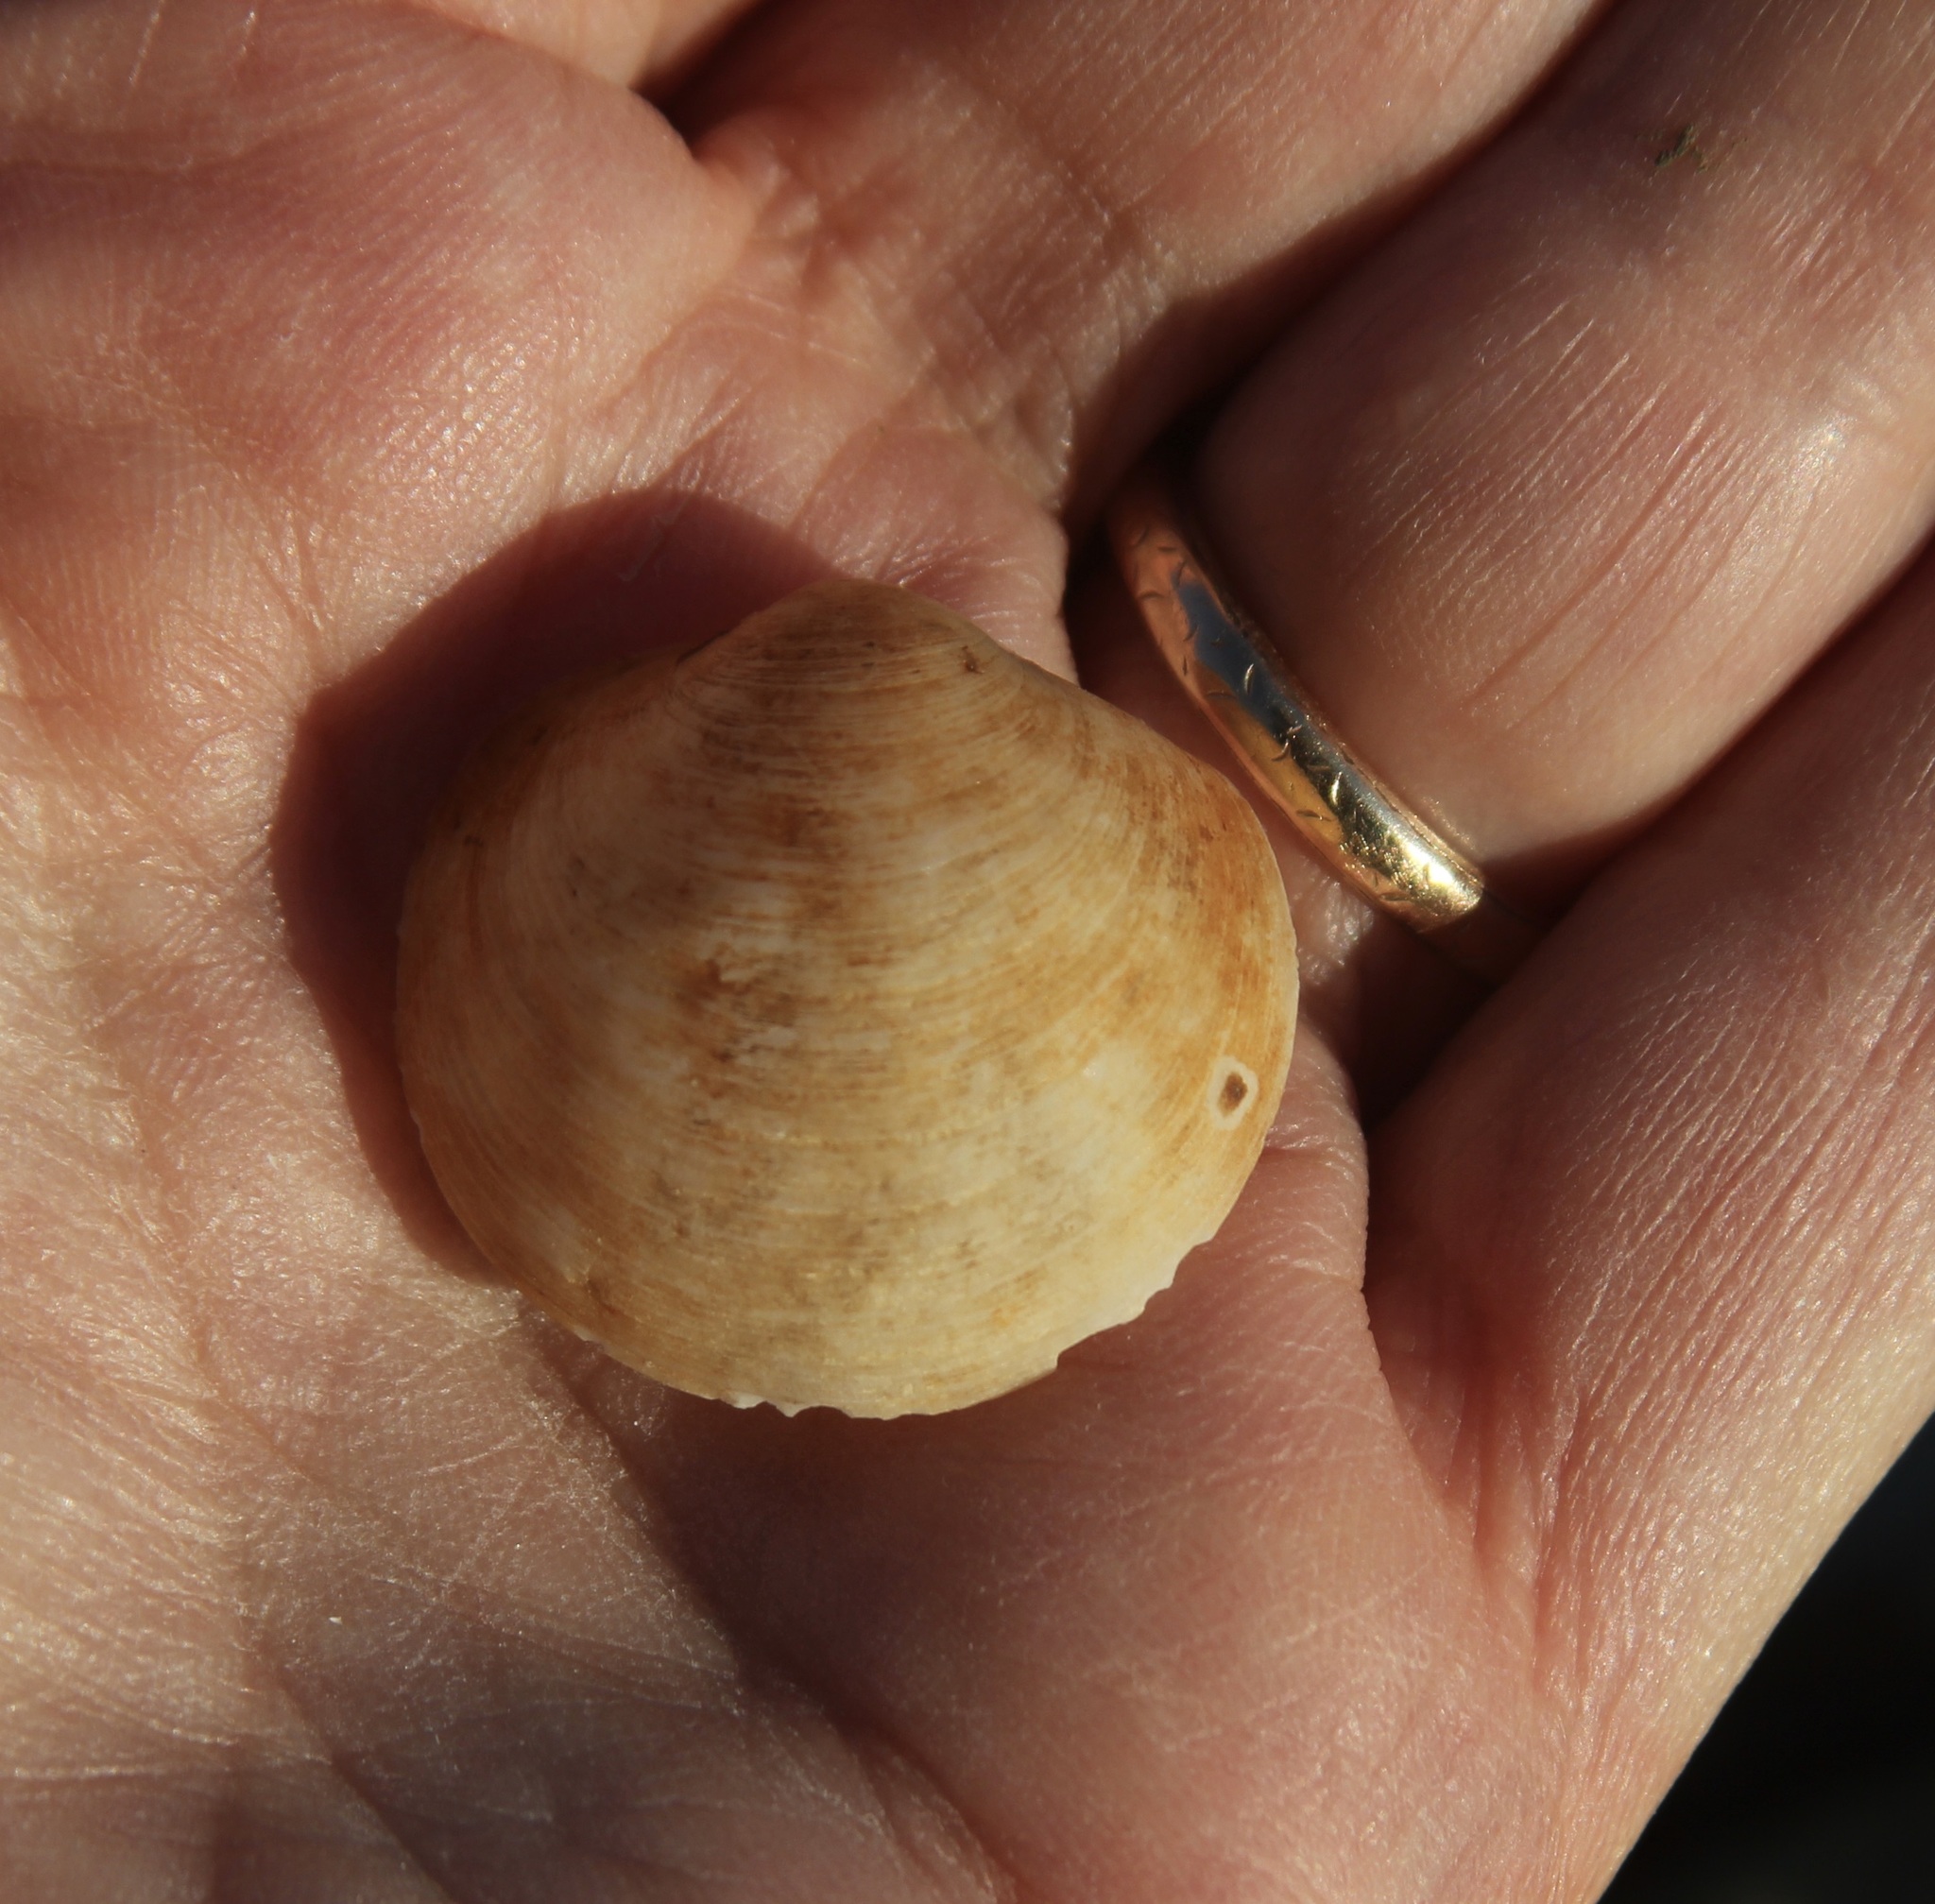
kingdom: Animalia
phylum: Mollusca
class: Bivalvia
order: Venerida
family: Ungulinidae
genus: Zemysina
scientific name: Zemysina orbella
